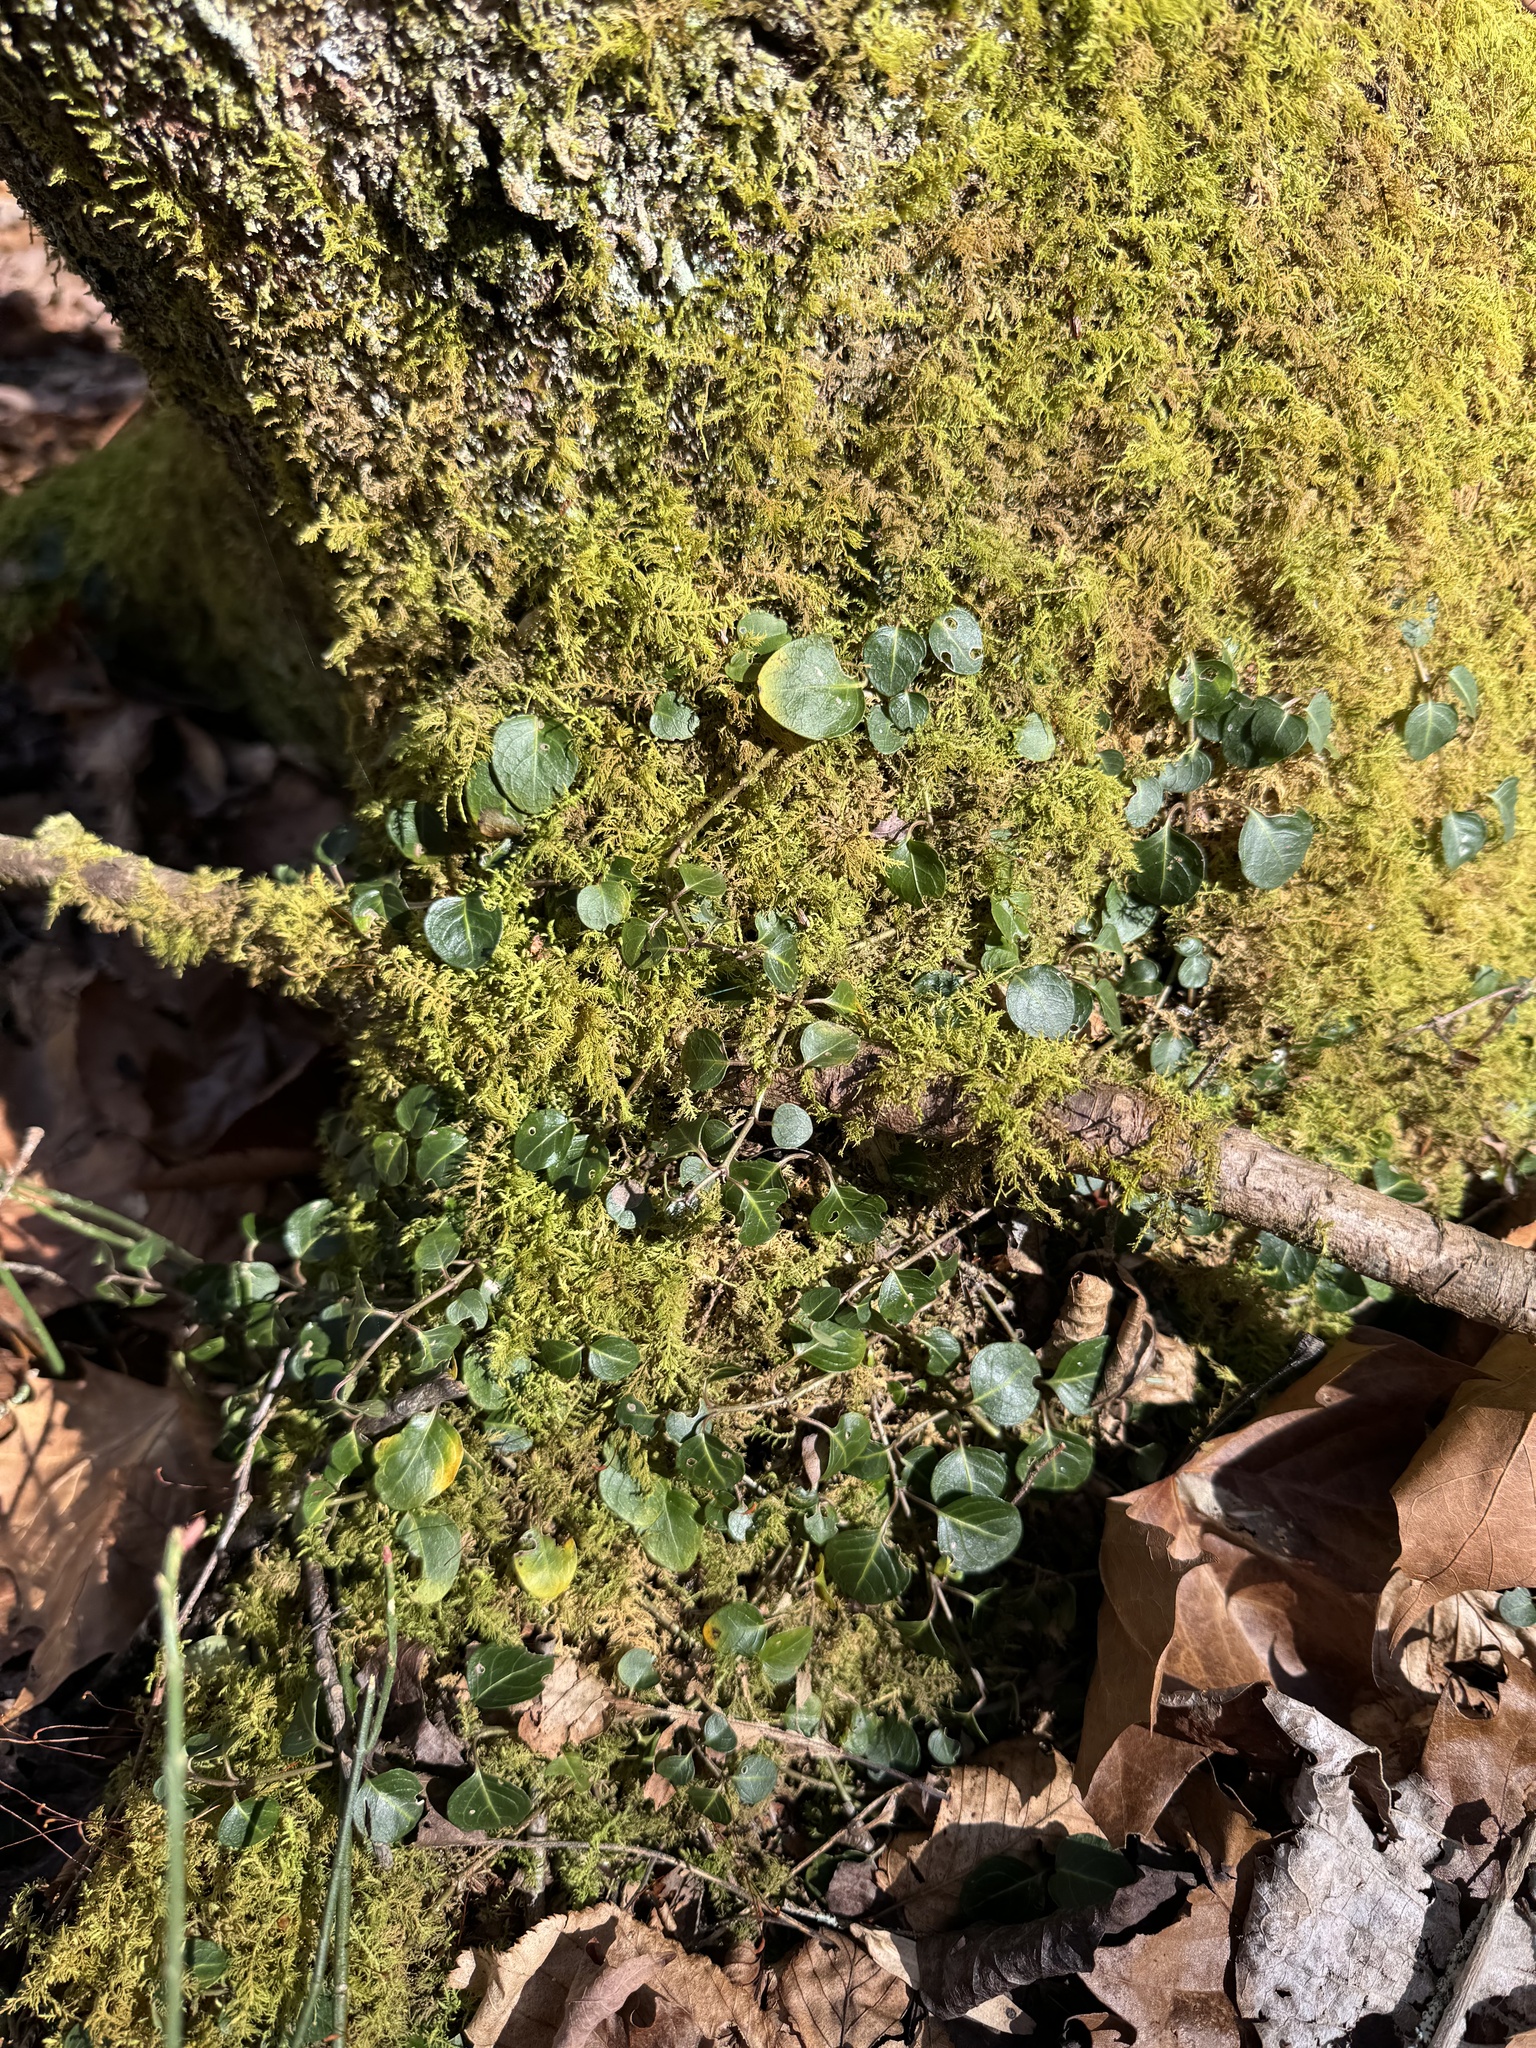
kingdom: Plantae
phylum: Tracheophyta
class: Magnoliopsida
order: Gentianales
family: Rubiaceae
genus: Mitchella
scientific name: Mitchella repens
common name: Partridge-berry
